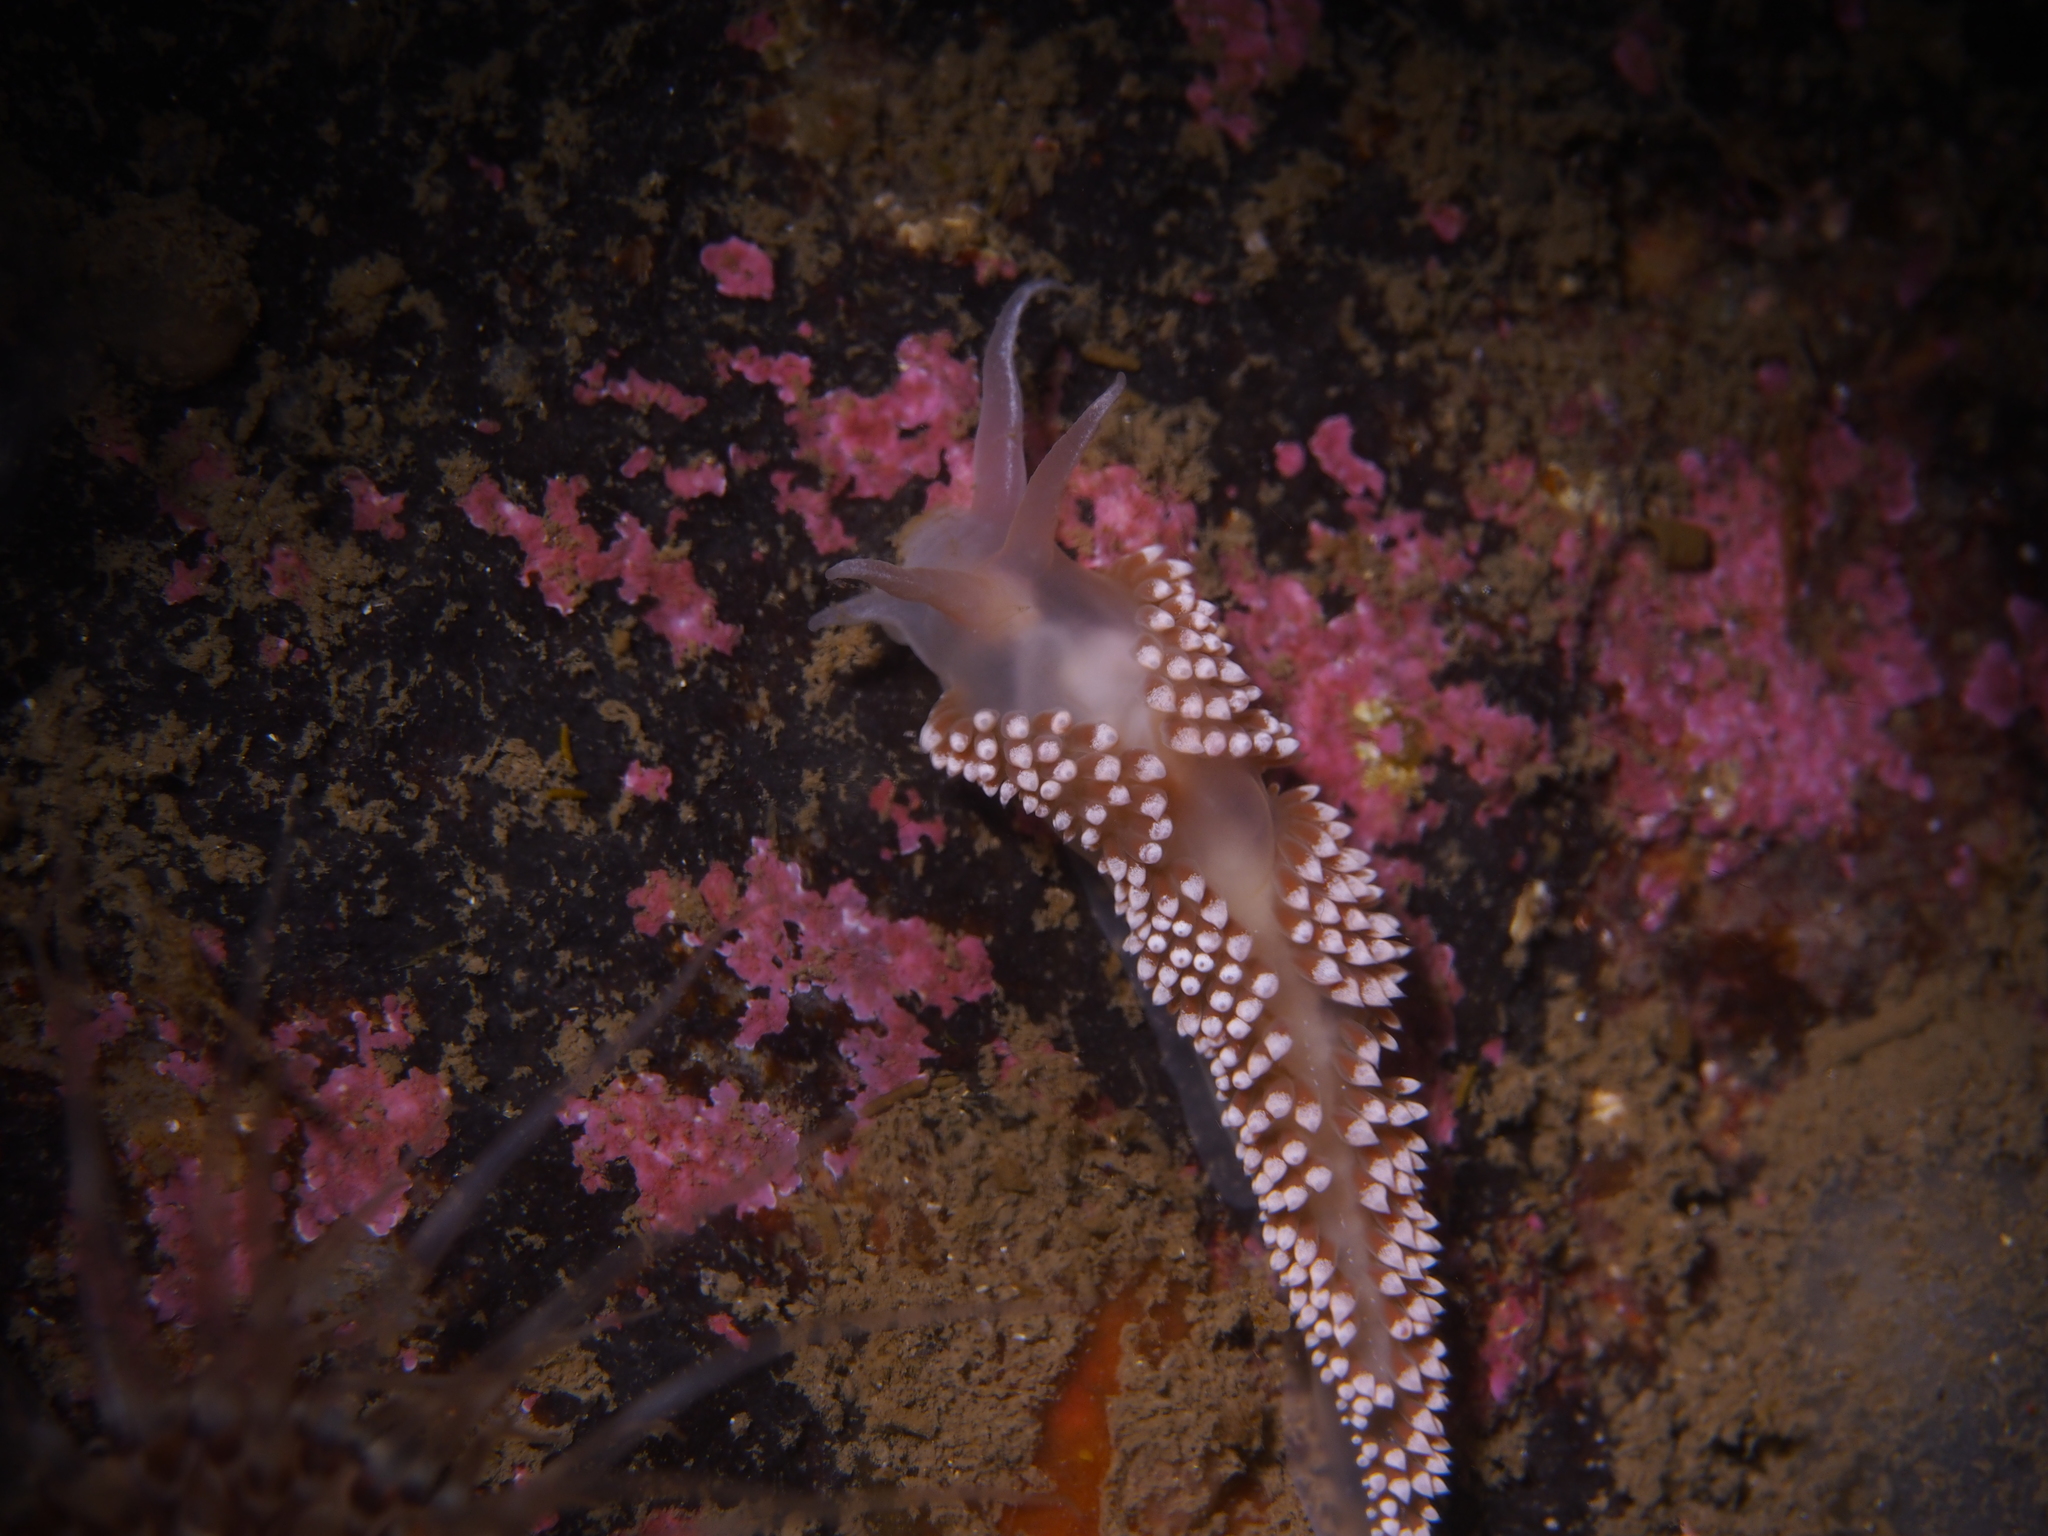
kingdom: Animalia
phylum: Mollusca
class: Gastropoda
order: Nudibranchia
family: Coryphellidae
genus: Coryphella
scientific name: Coryphella verrucosa
